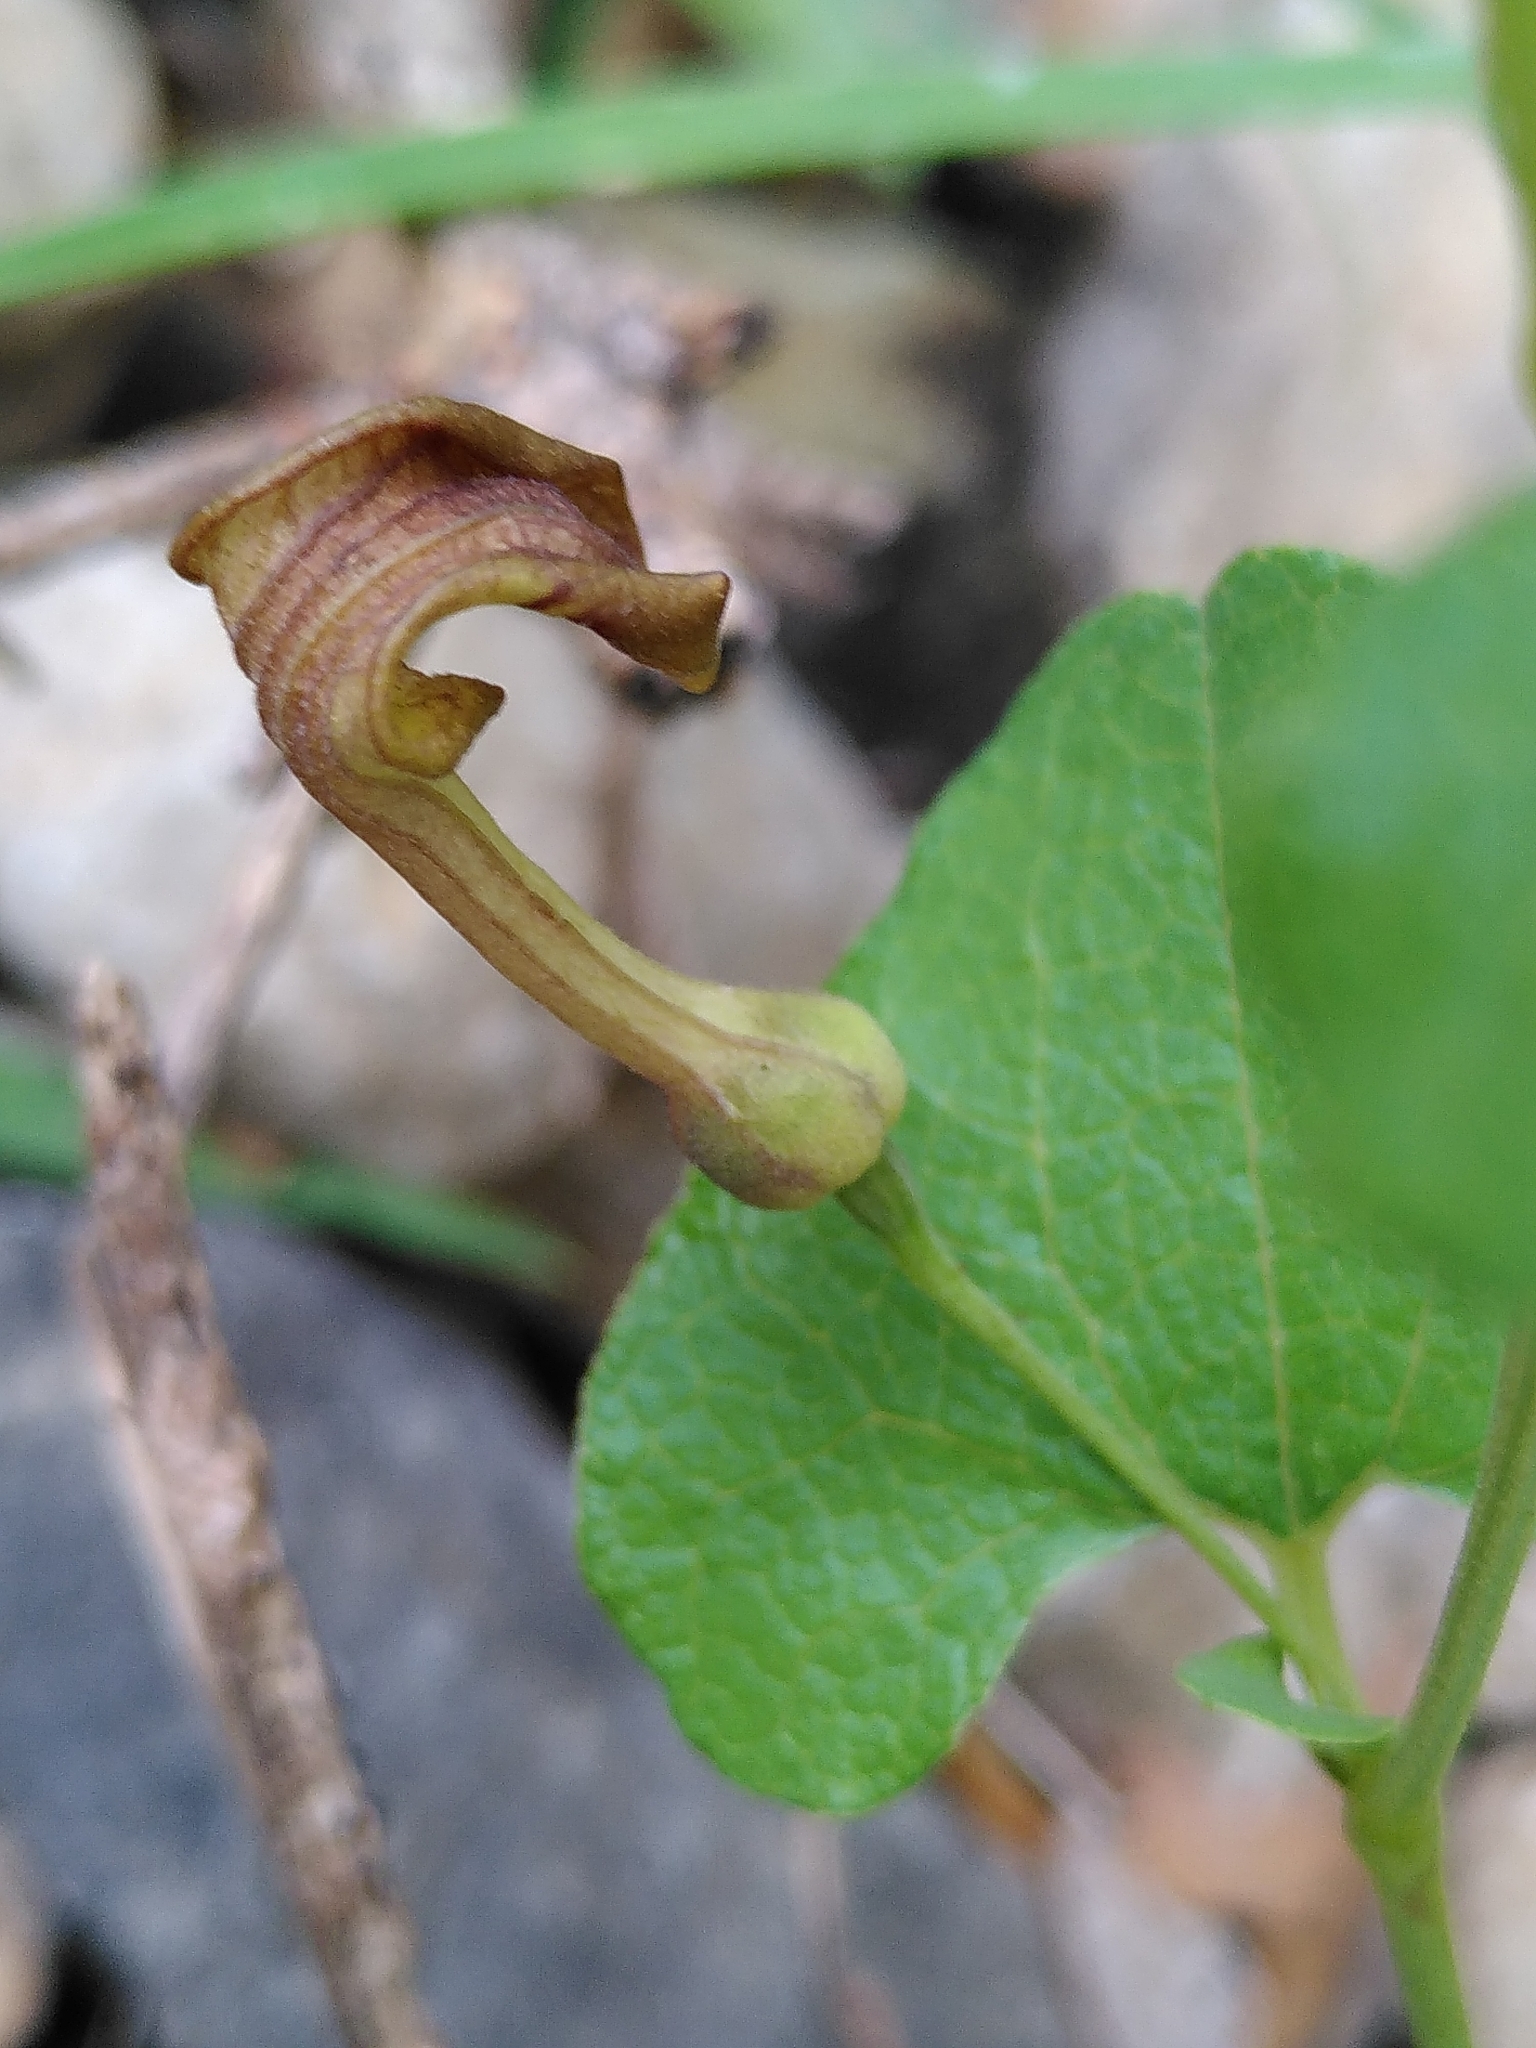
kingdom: Plantae
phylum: Tracheophyta
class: Magnoliopsida
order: Piperales
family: Aristolochiaceae
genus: Aristolochia
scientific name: Aristolochia pistolochia
